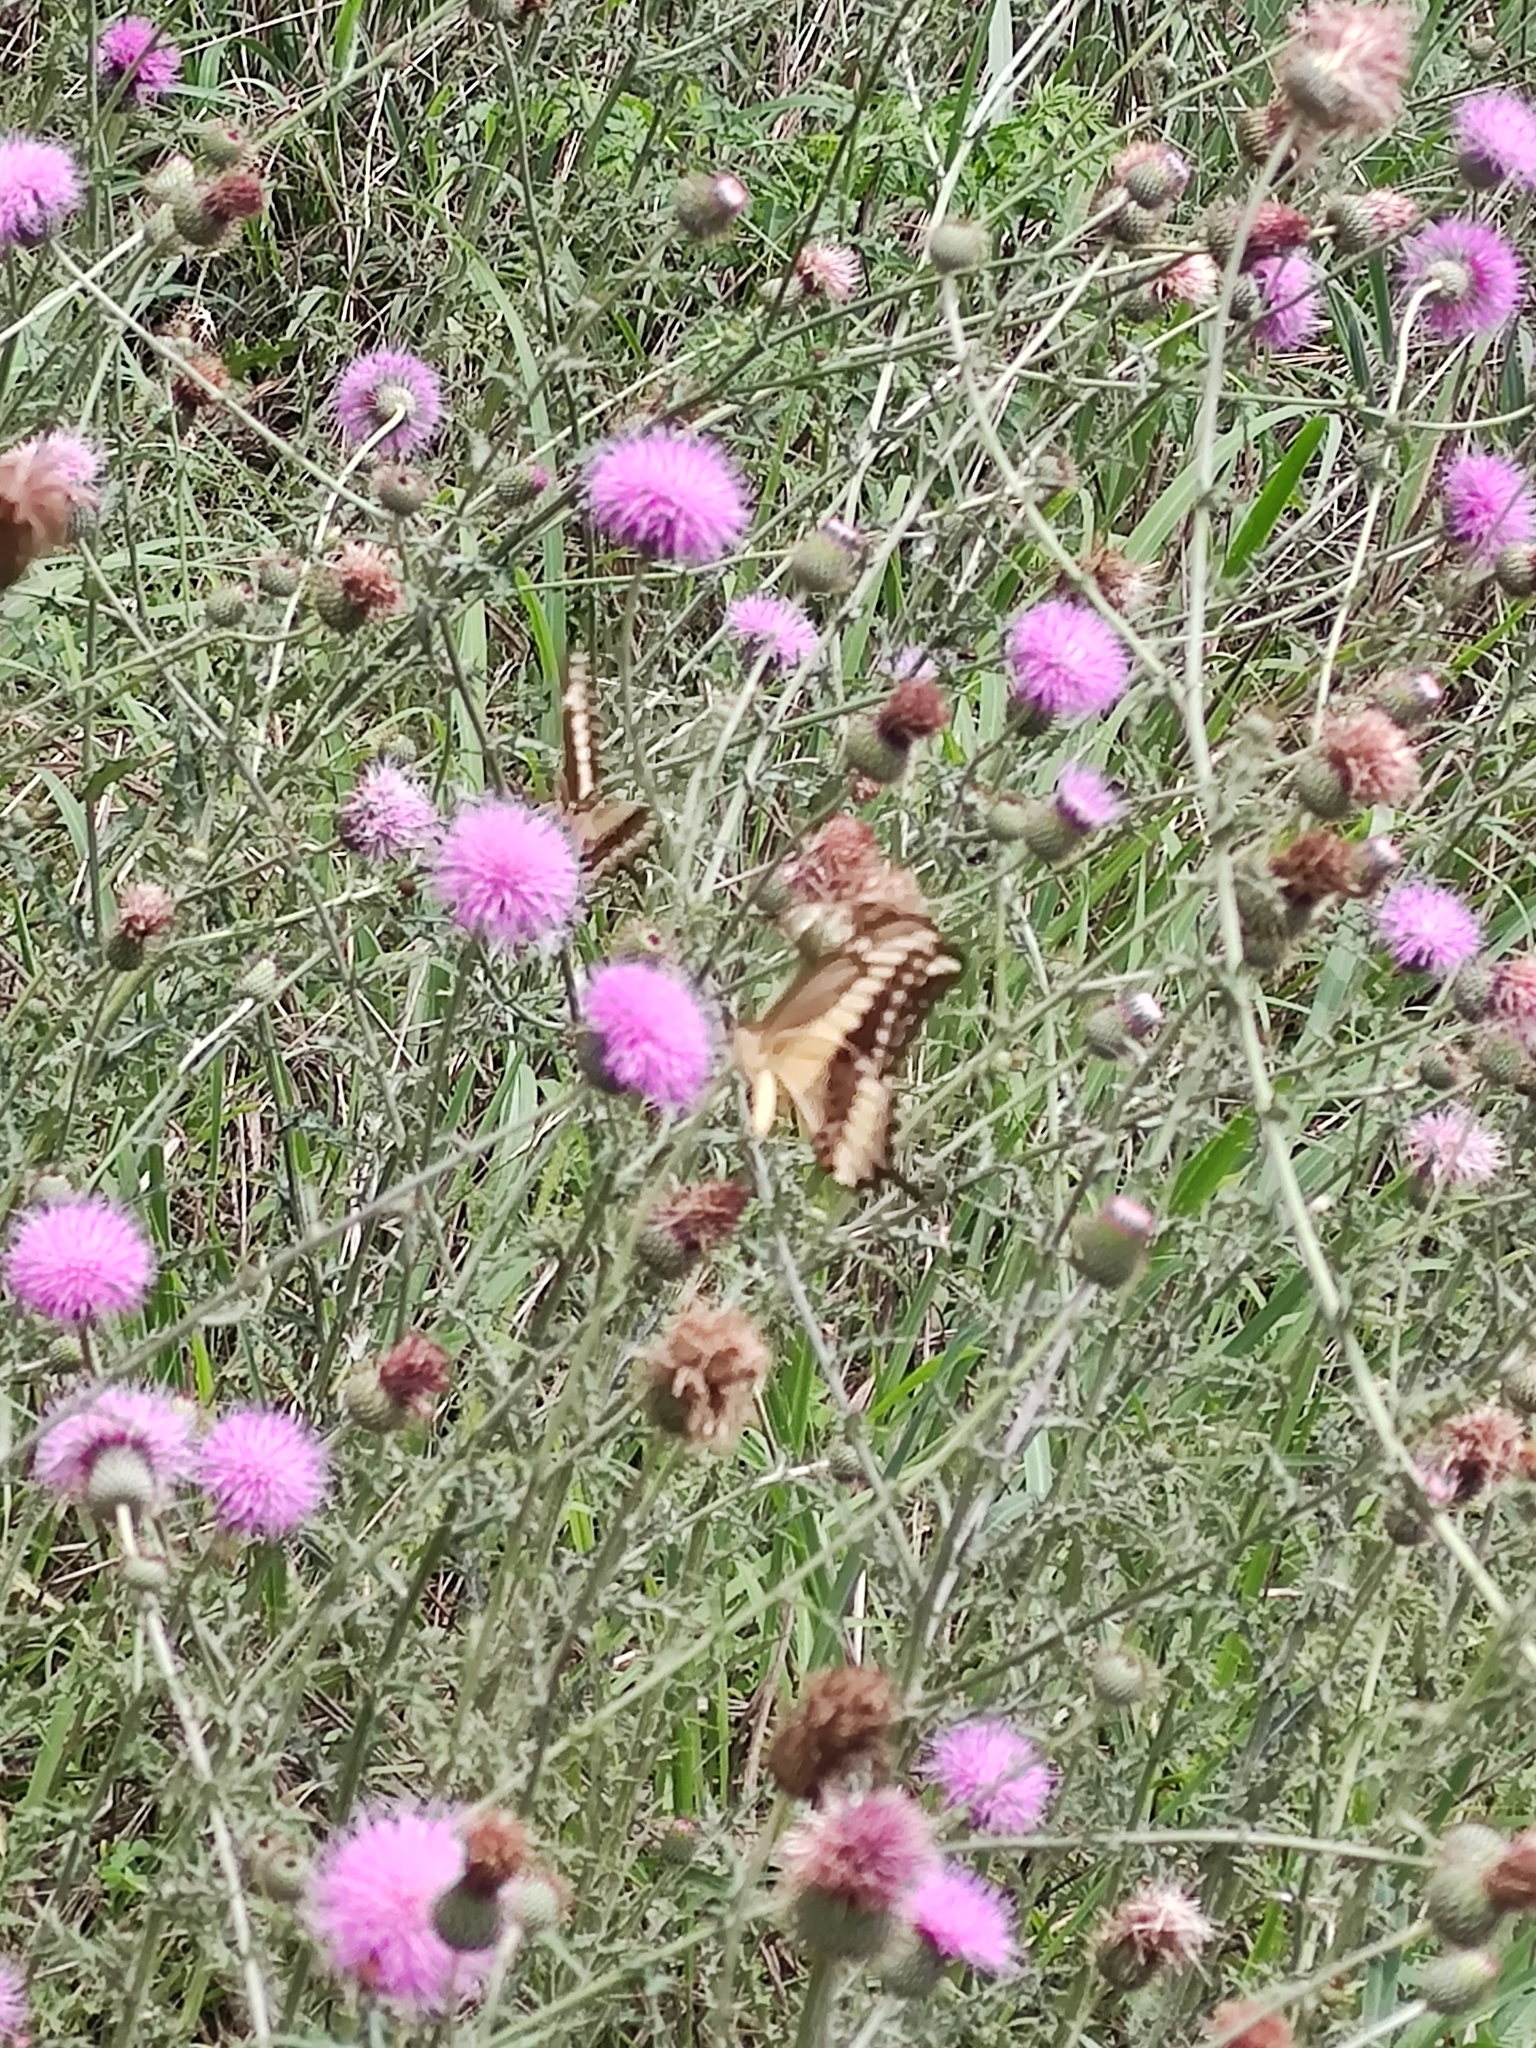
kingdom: Animalia
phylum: Arthropoda
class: Insecta
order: Lepidoptera
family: Papilionidae
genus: Papilio
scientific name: Papilio ornythion
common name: Ornythion swallowtail
